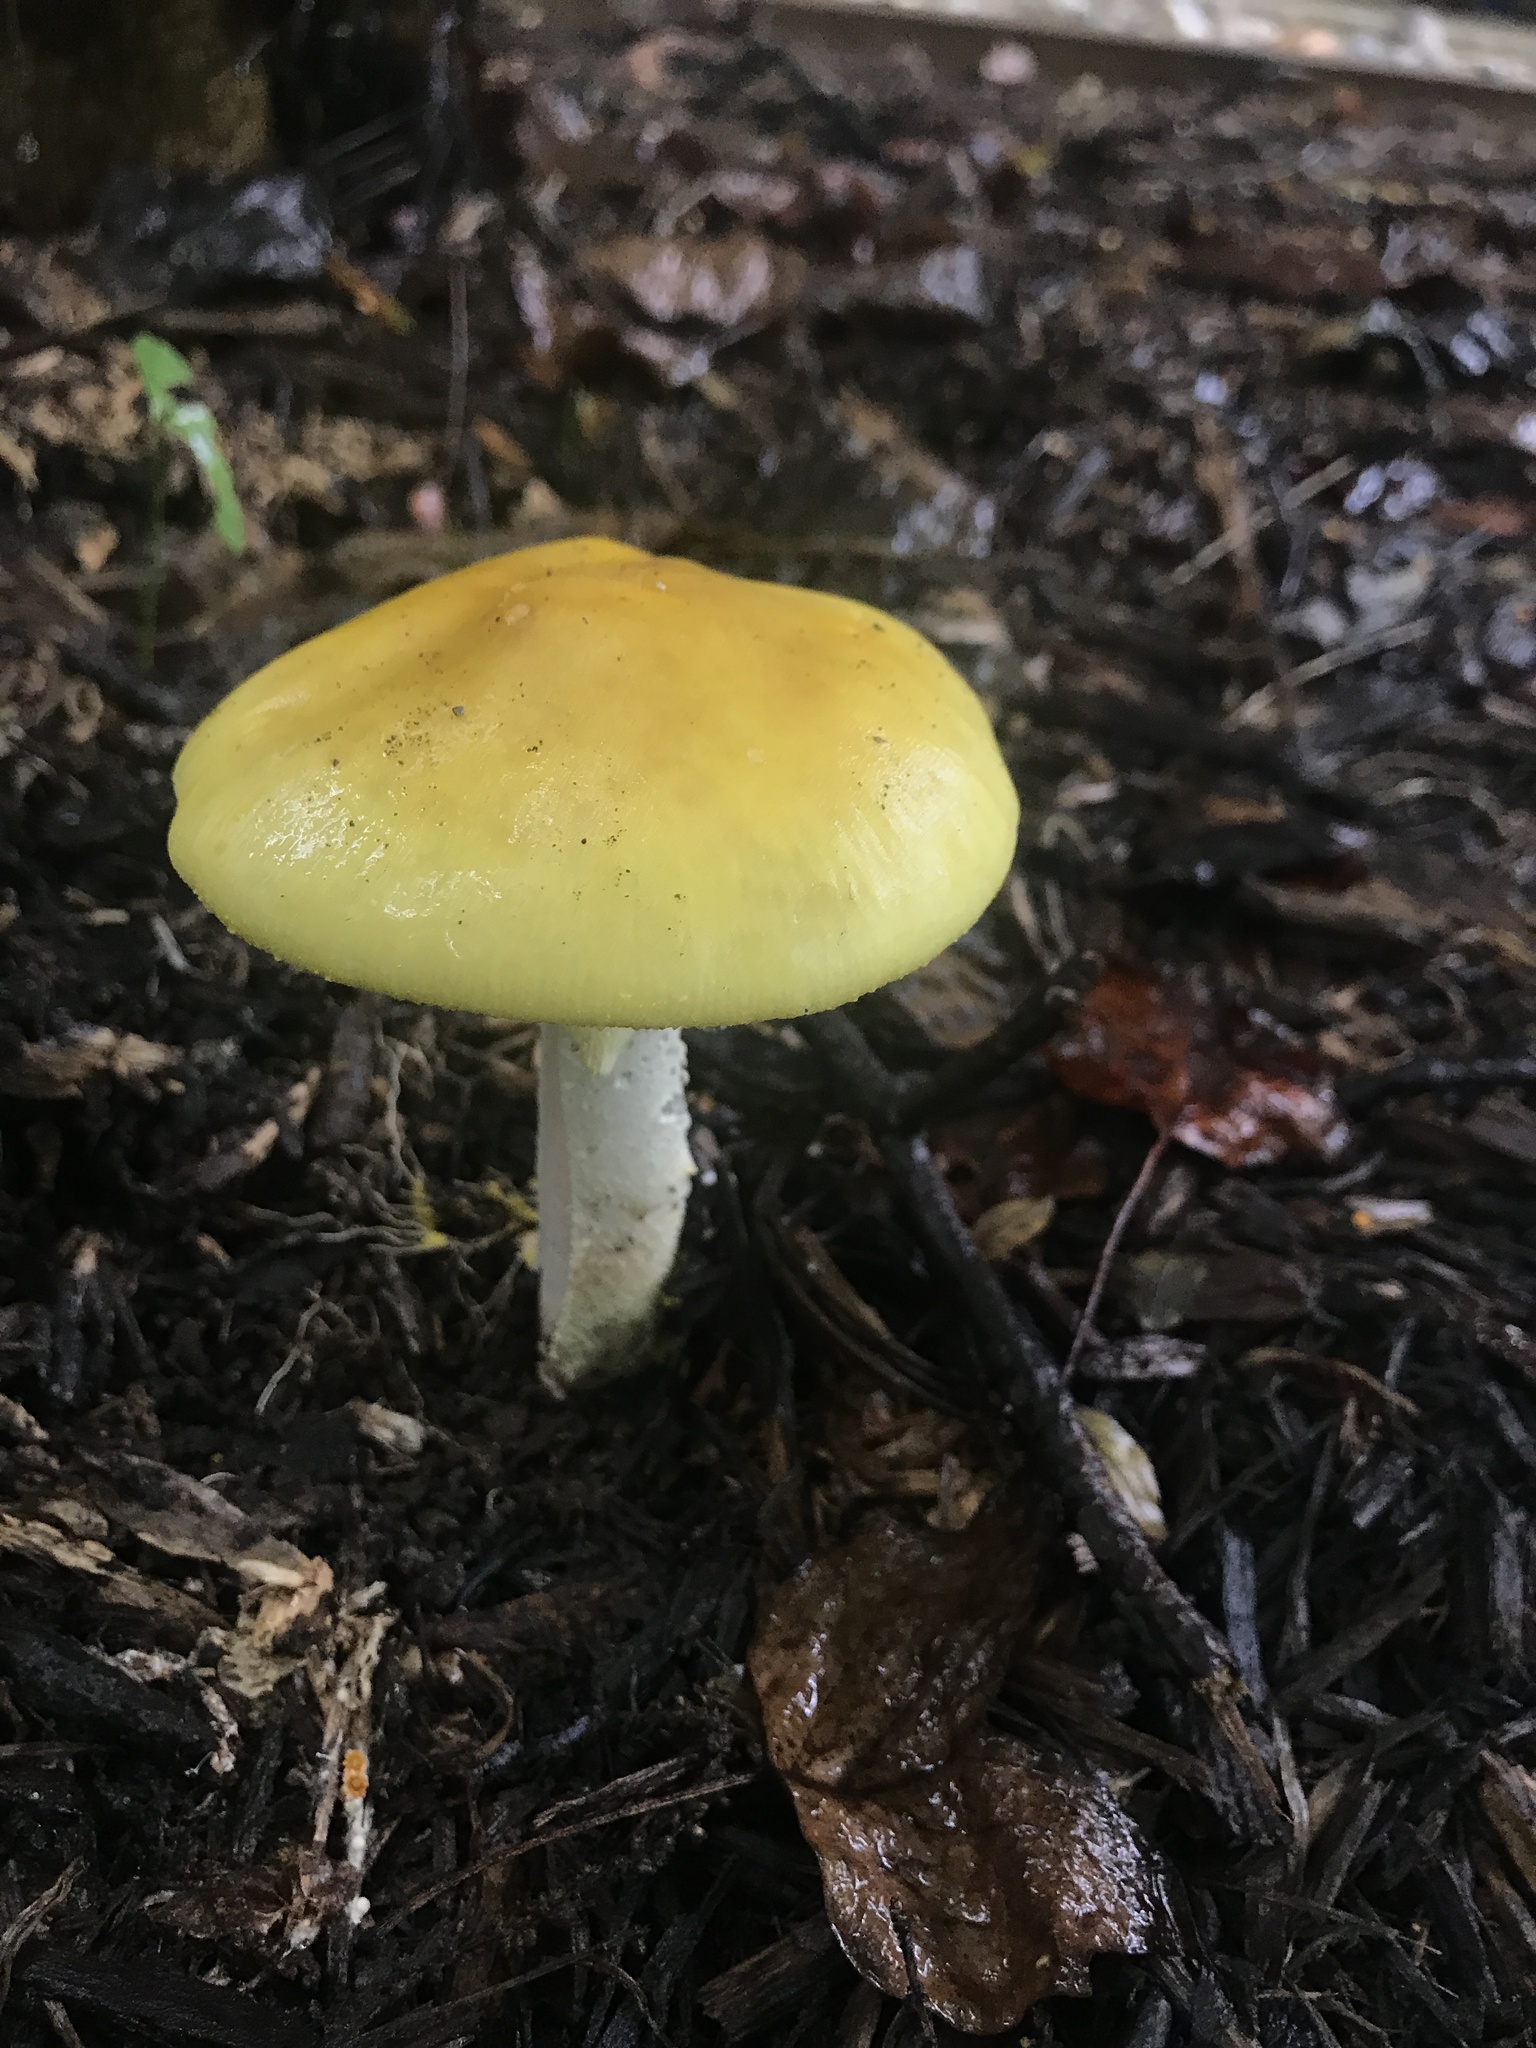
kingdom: Fungi
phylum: Basidiomycota
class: Agaricomycetes
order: Agaricales
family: Amanitaceae
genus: Amanita
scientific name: Amanita flavorubens
